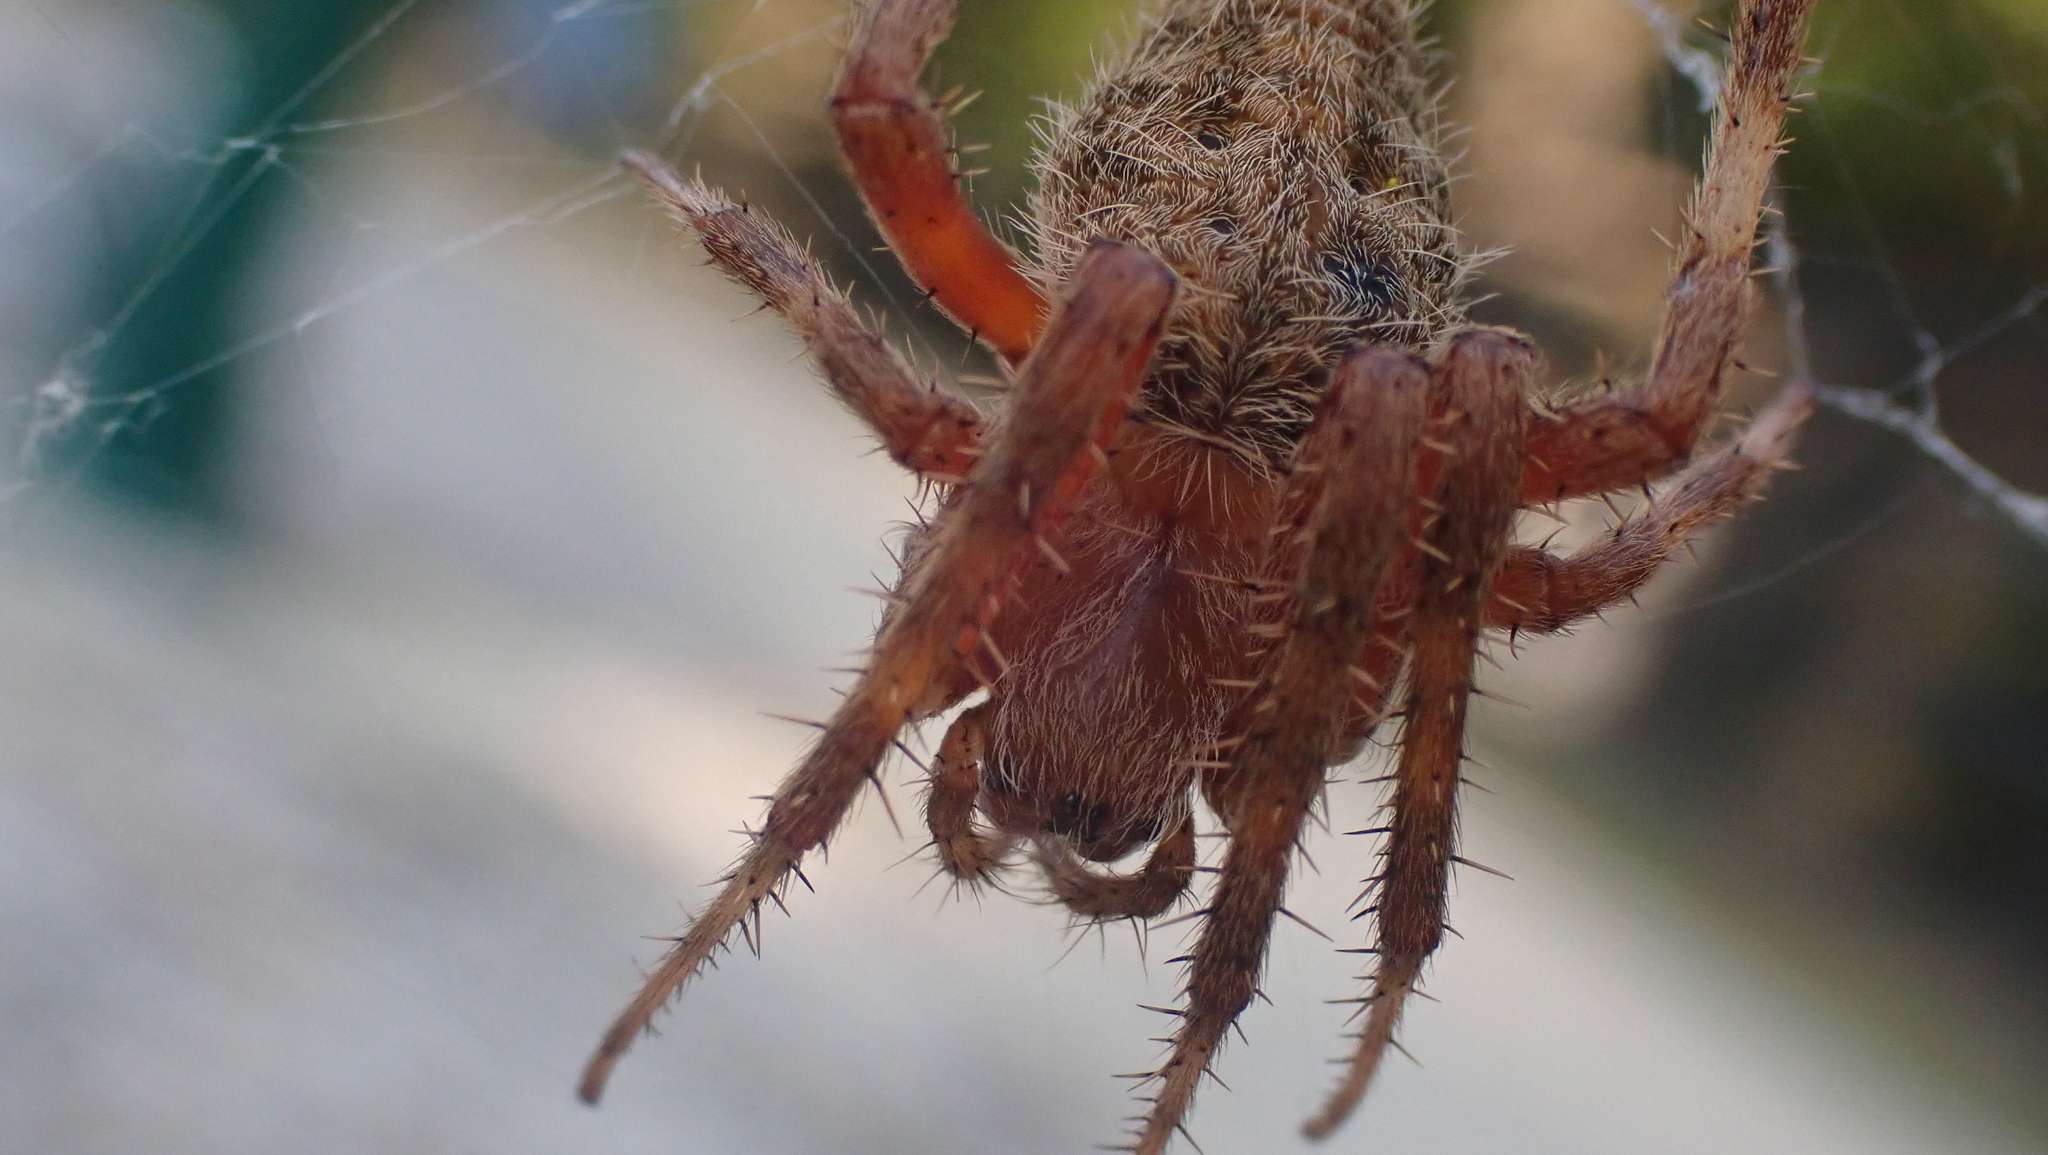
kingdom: Animalia
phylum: Arthropoda
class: Arachnida
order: Araneae
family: Araneidae
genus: Neoscona
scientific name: Neoscona crucifera
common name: Spotted orbweaver
